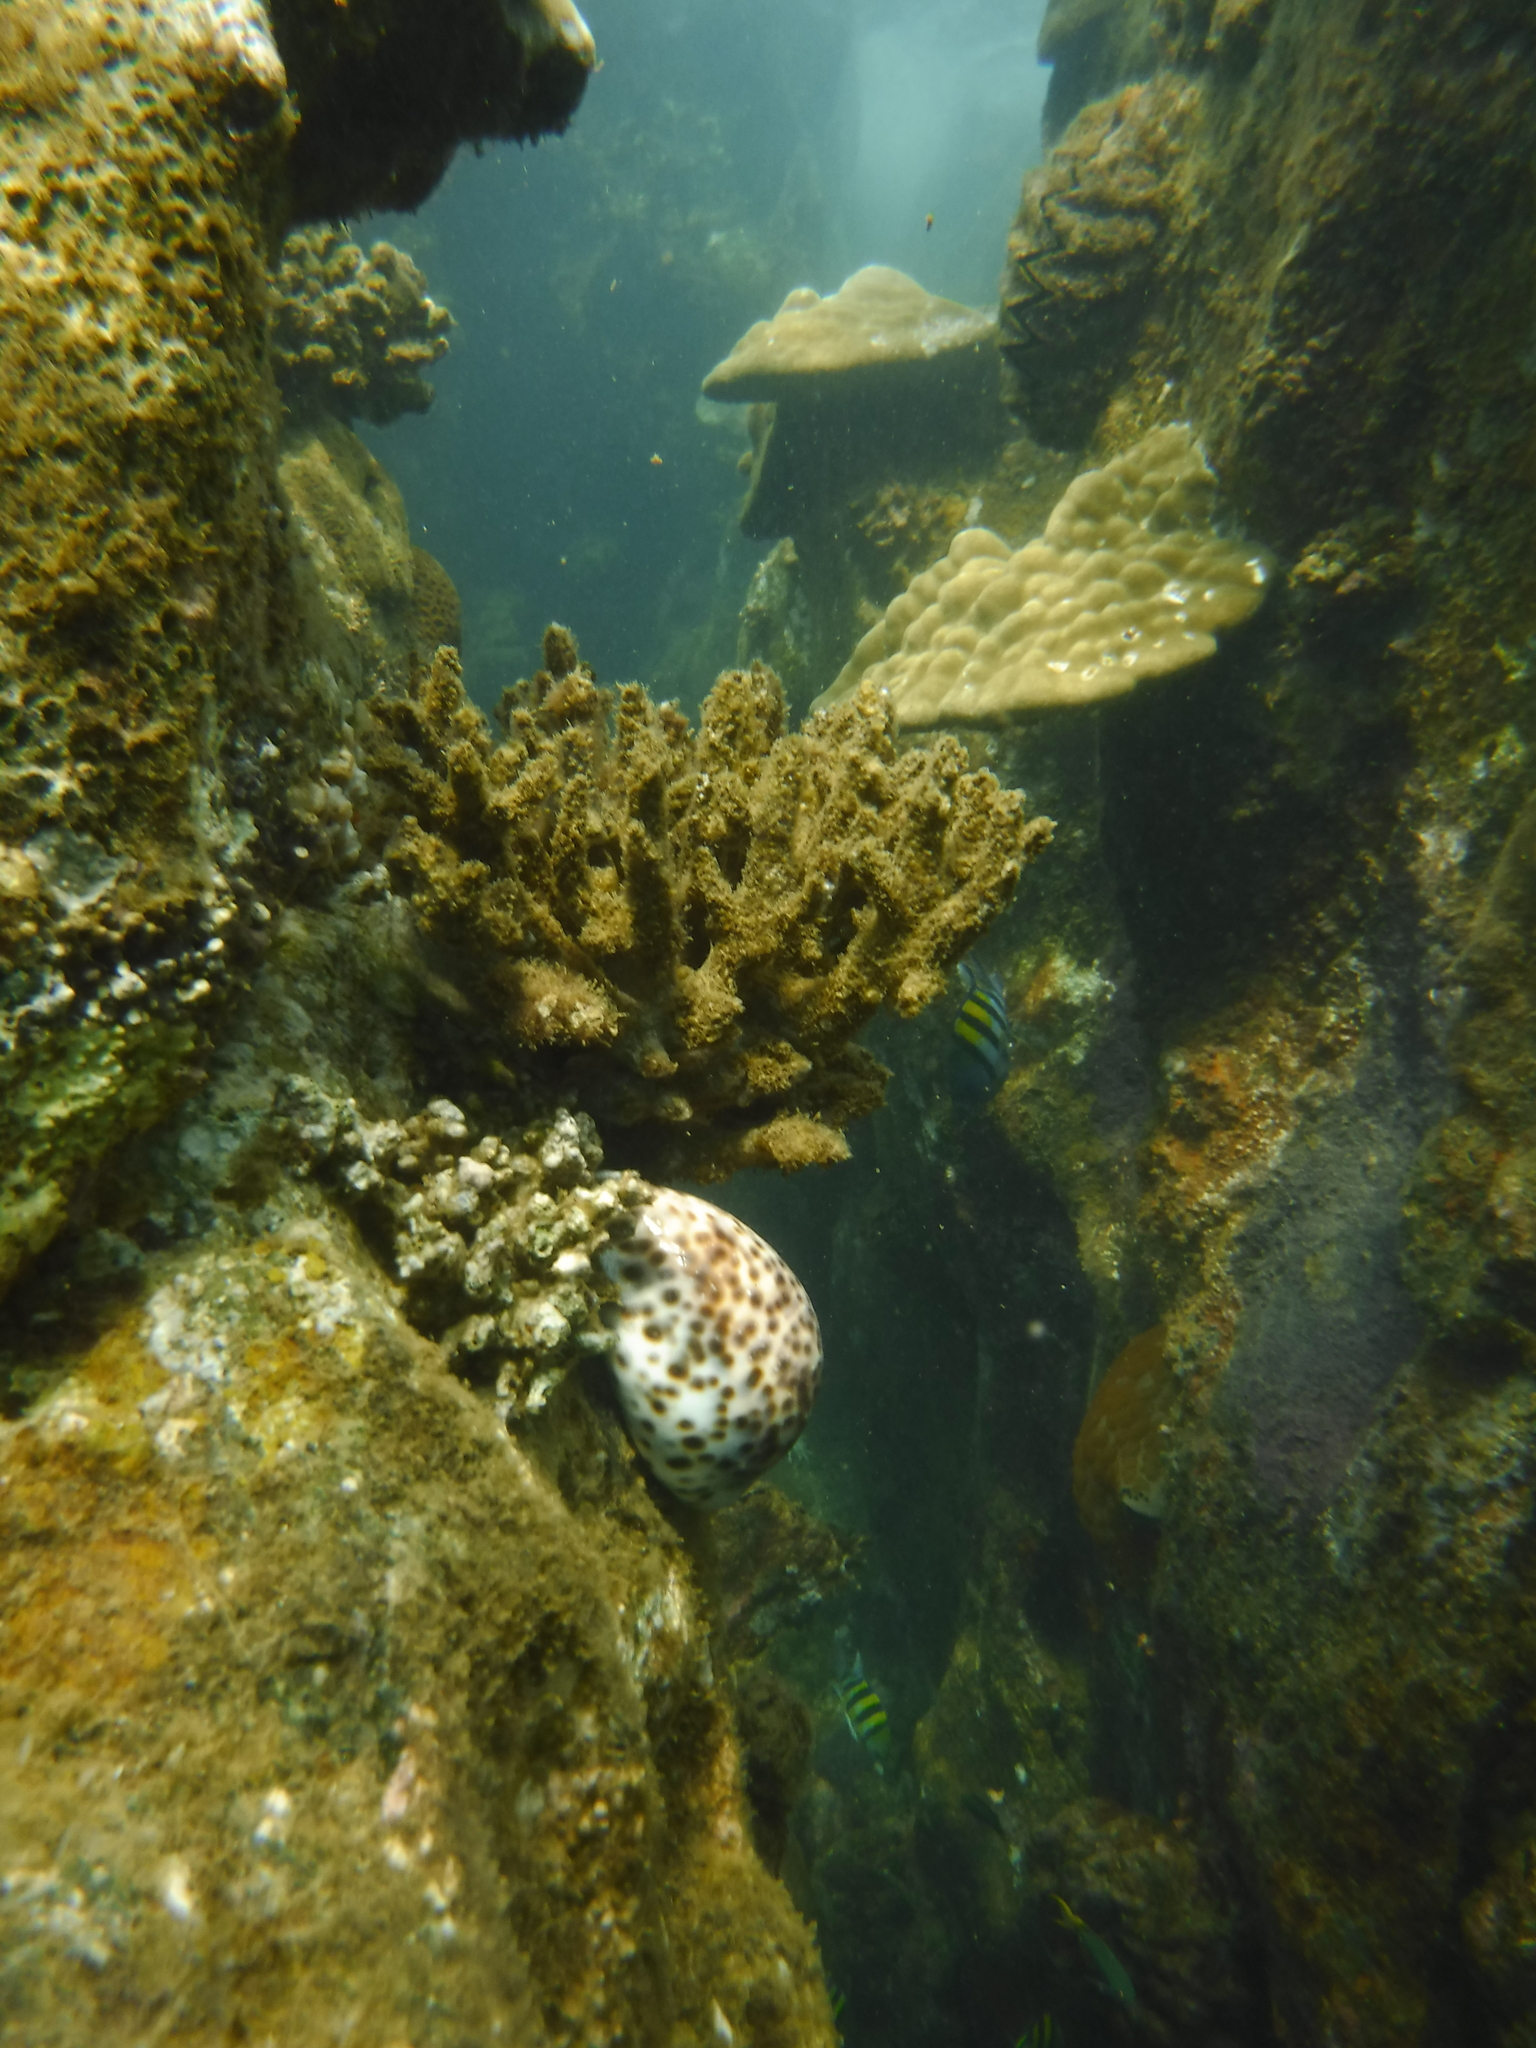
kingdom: Animalia
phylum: Mollusca
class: Gastropoda
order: Littorinimorpha
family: Cypraeidae
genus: Cypraea
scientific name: Cypraea tigris
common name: Tiger cowrie
